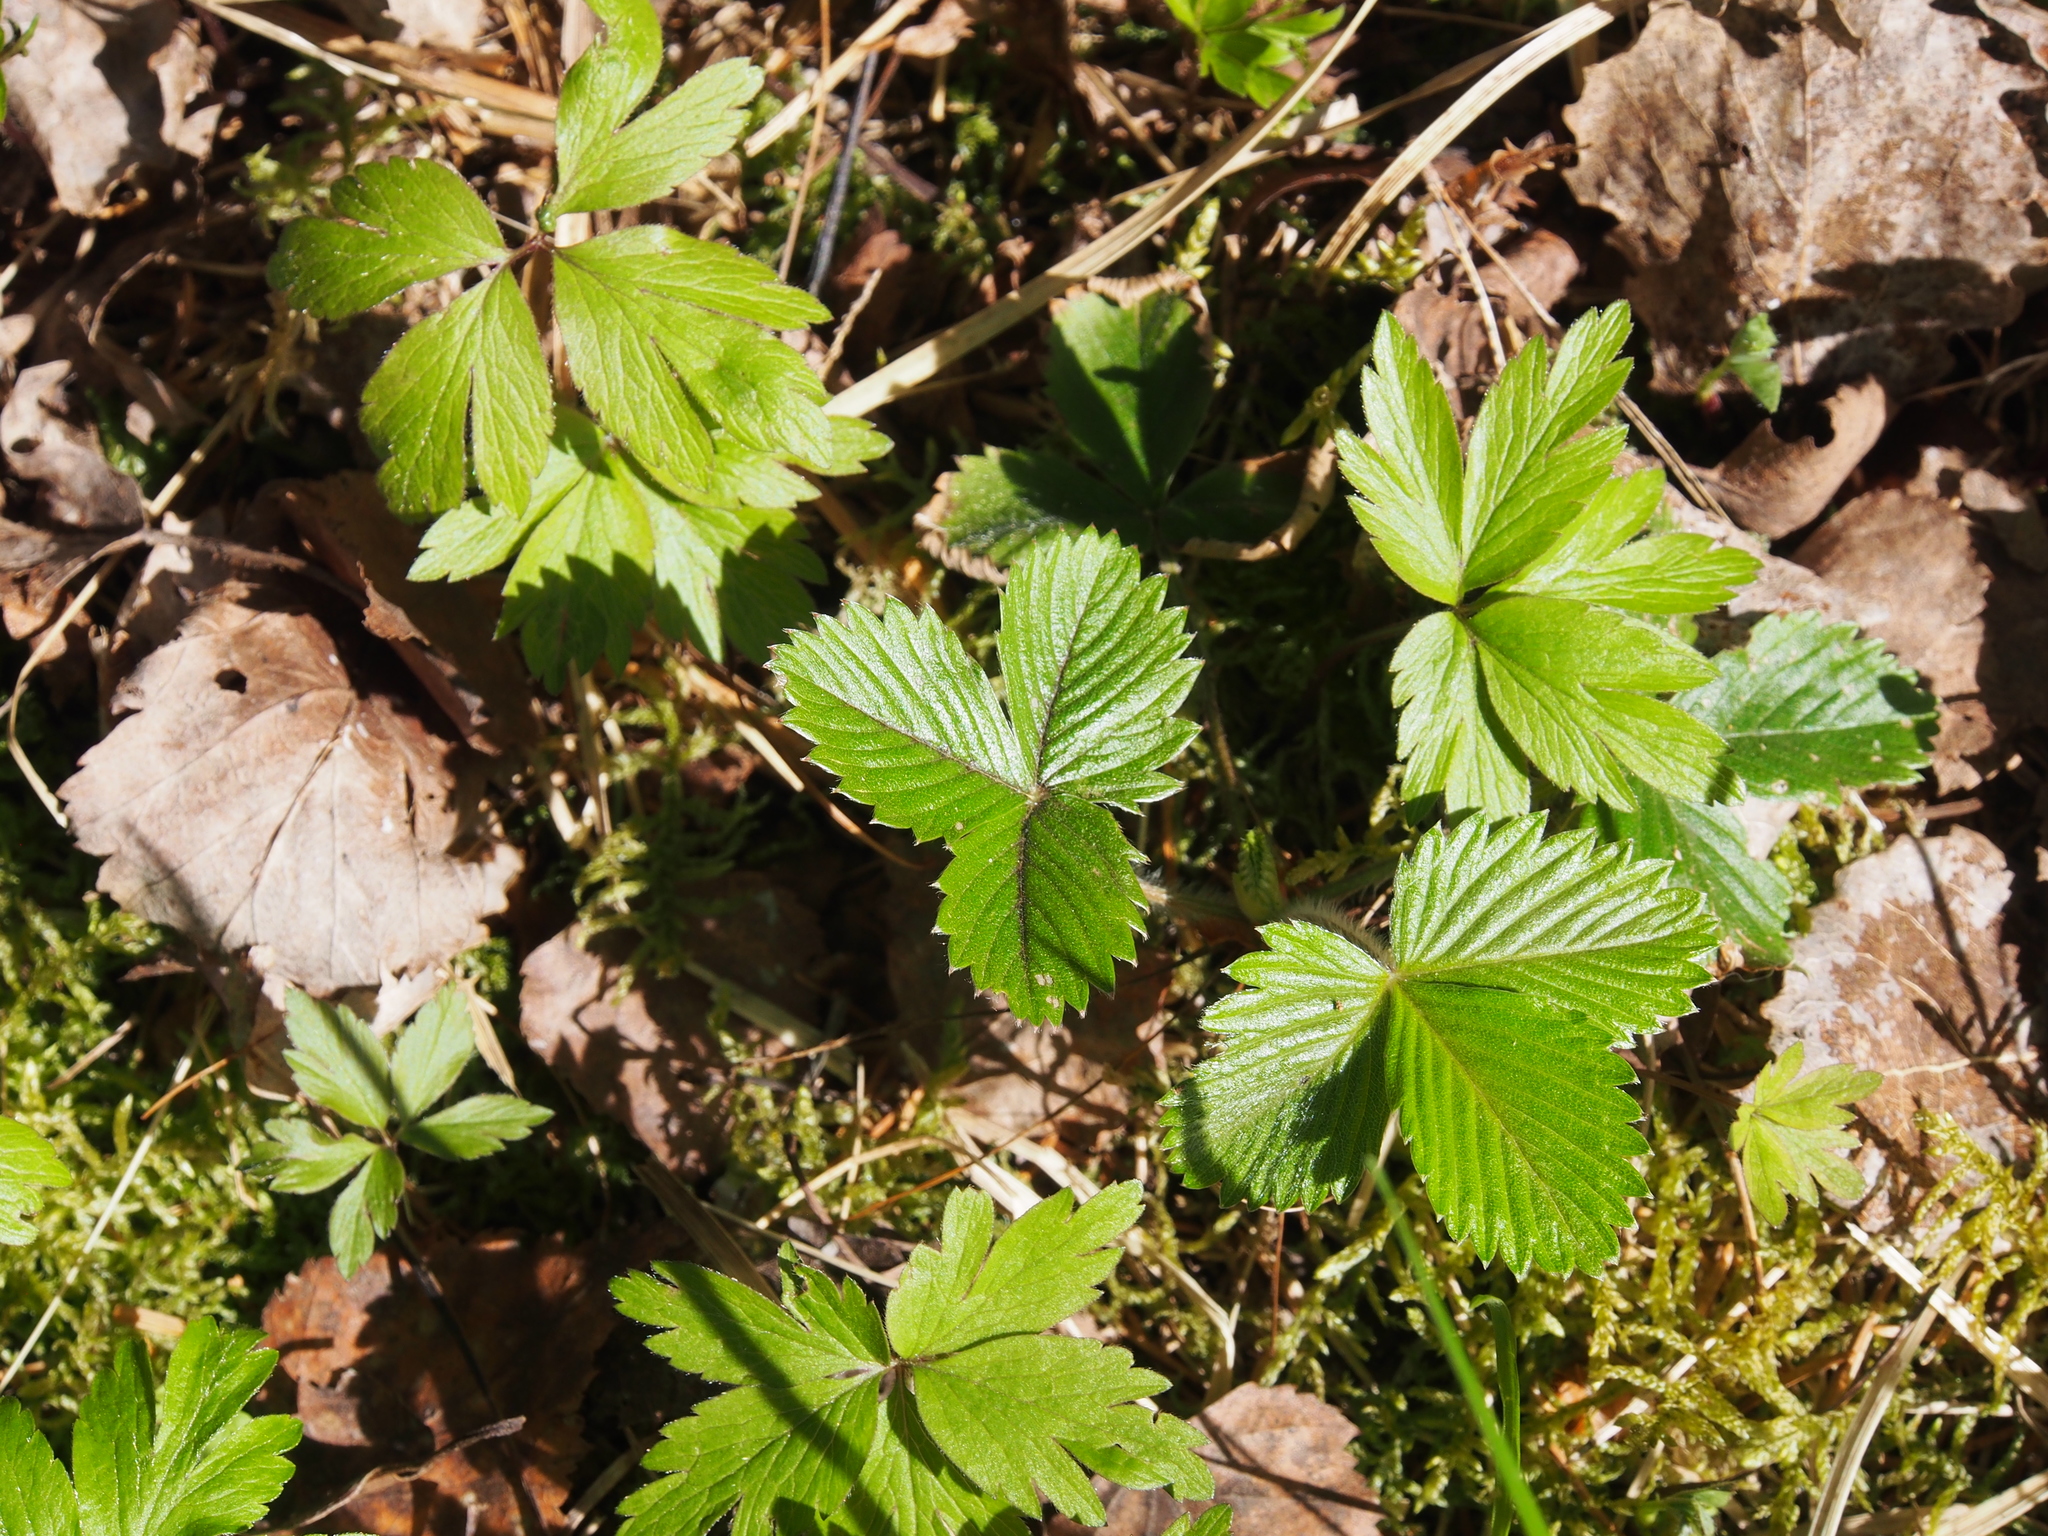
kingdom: Plantae
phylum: Tracheophyta
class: Magnoliopsida
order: Rosales
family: Rosaceae
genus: Fragaria
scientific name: Fragaria vesca
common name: Wild strawberry
